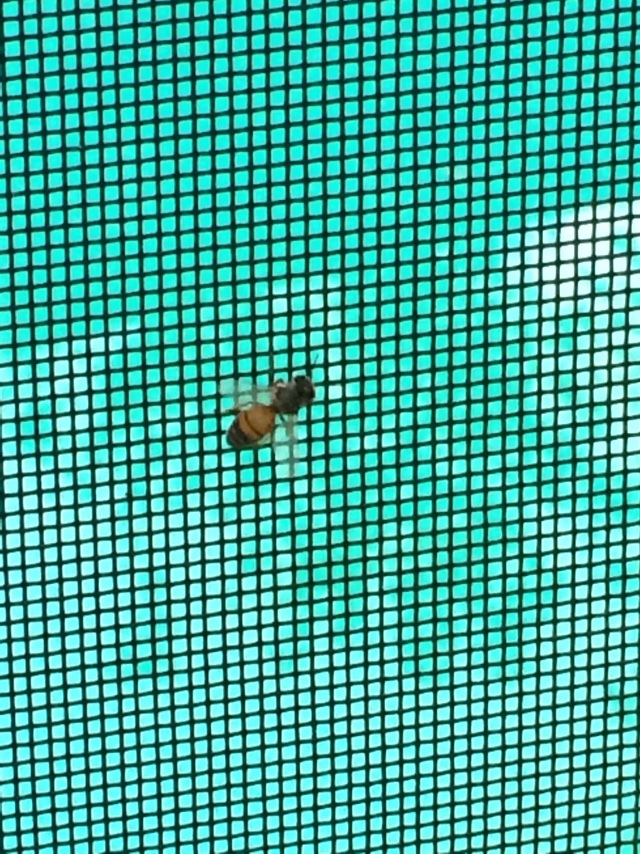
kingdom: Animalia
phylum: Arthropoda
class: Insecta
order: Hymenoptera
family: Apidae
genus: Apis
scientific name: Apis mellifera
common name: Honey bee
